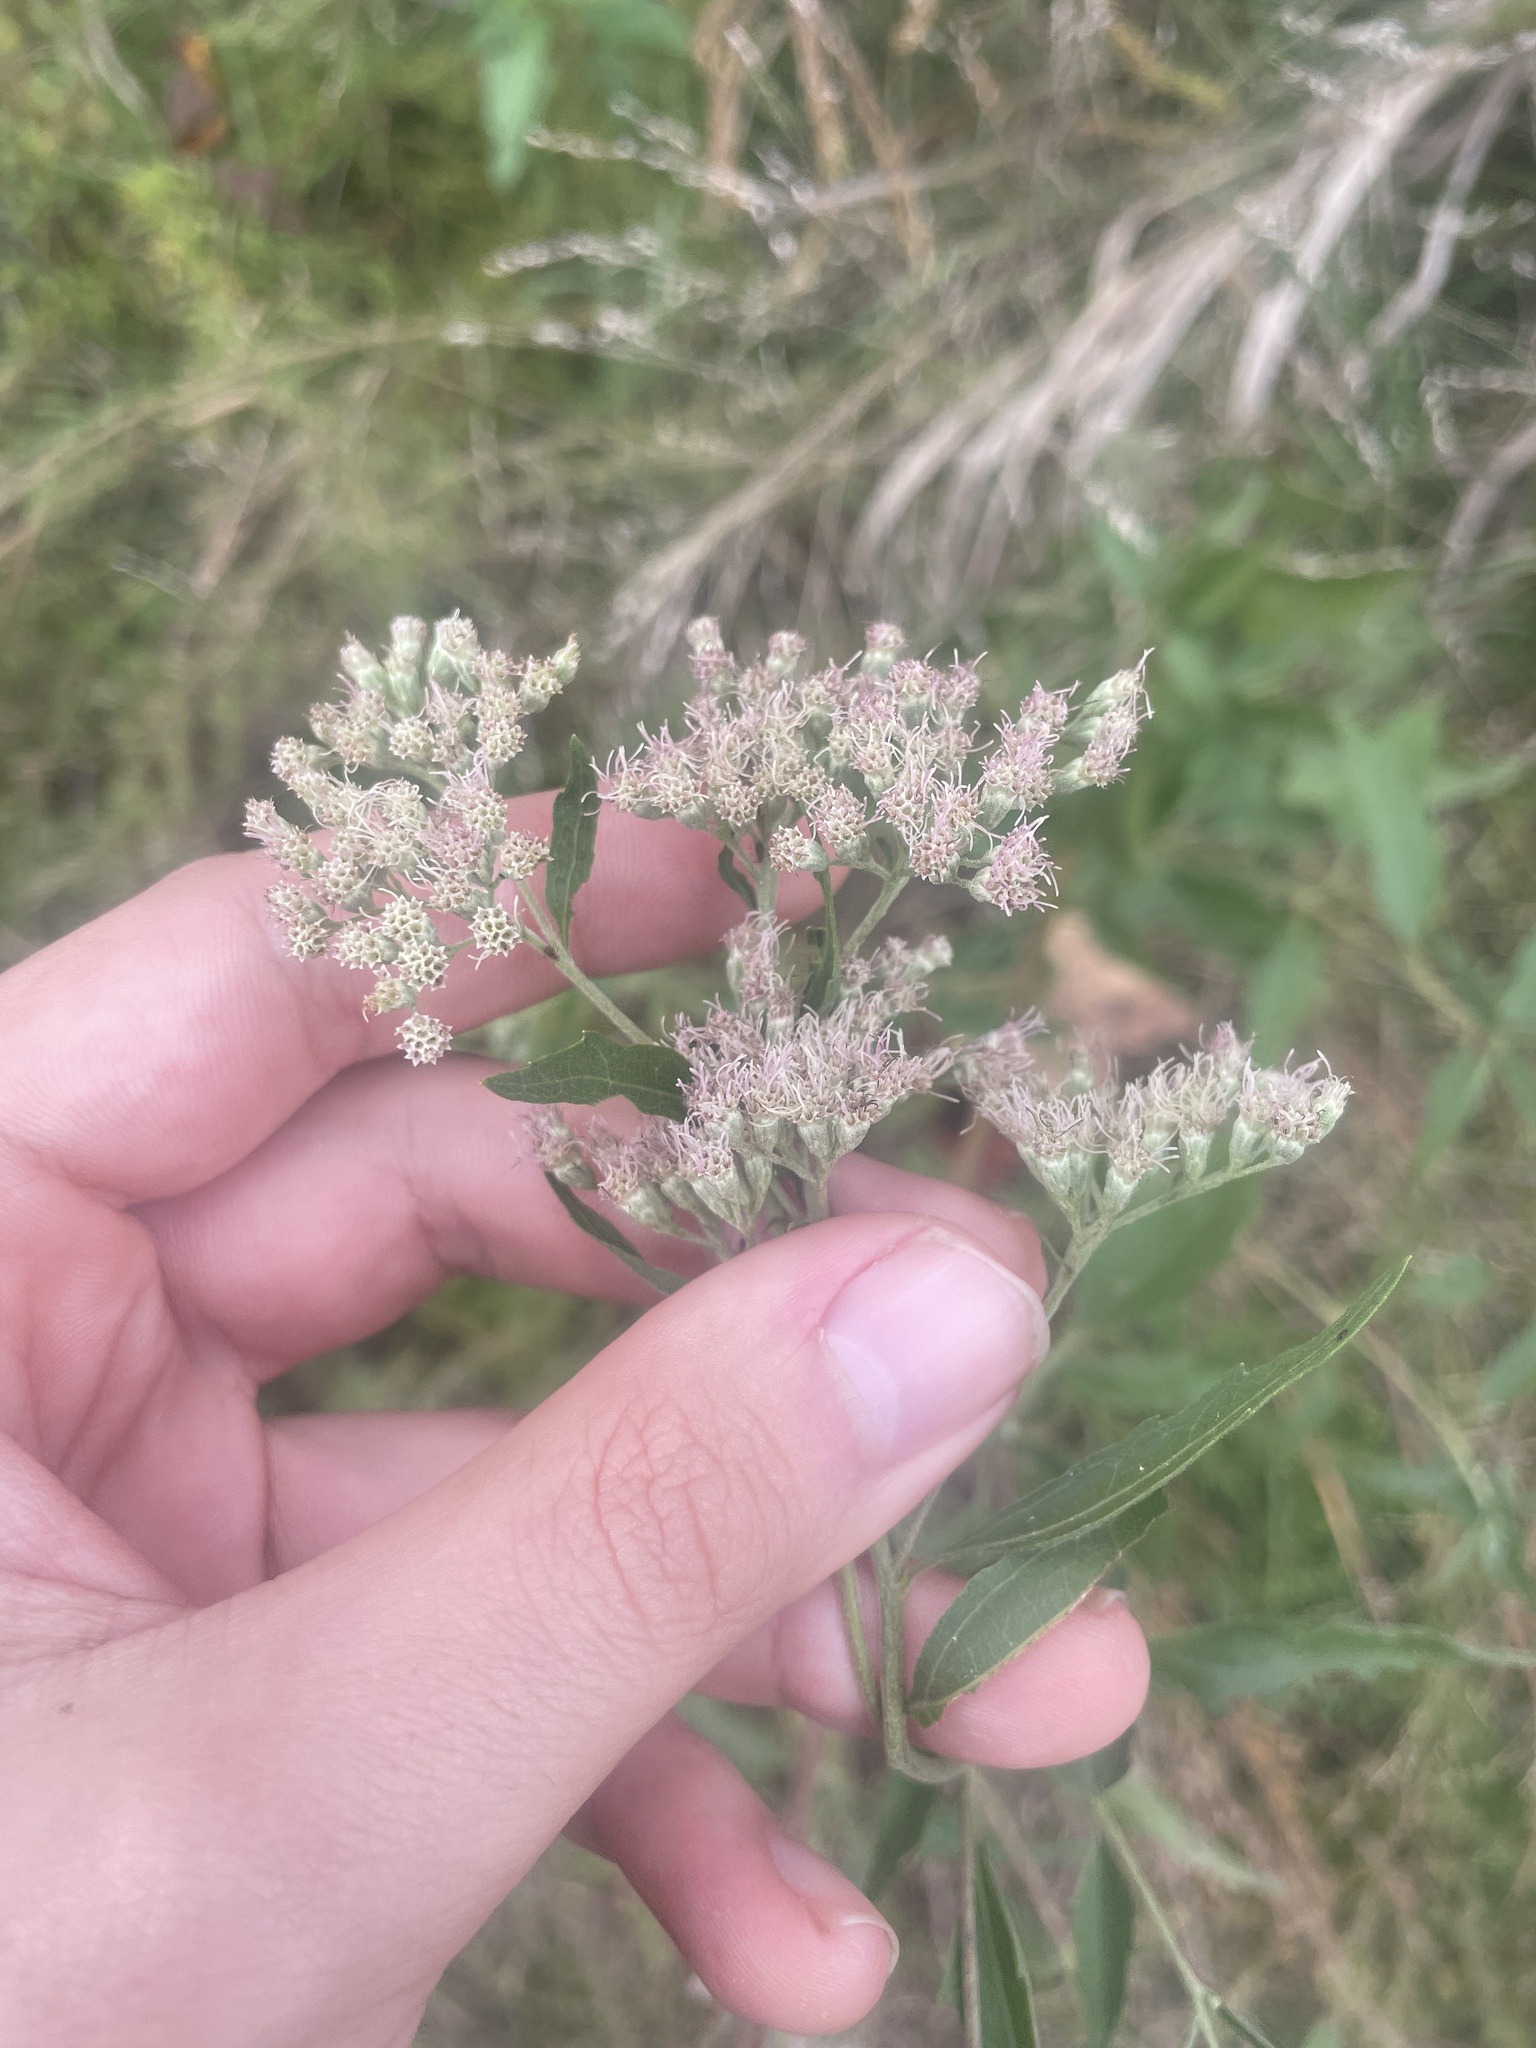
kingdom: Plantae
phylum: Tracheophyta
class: Magnoliopsida
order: Asterales
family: Asteraceae
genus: Eupatorium
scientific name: Eupatorium serotinum
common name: Late boneset
